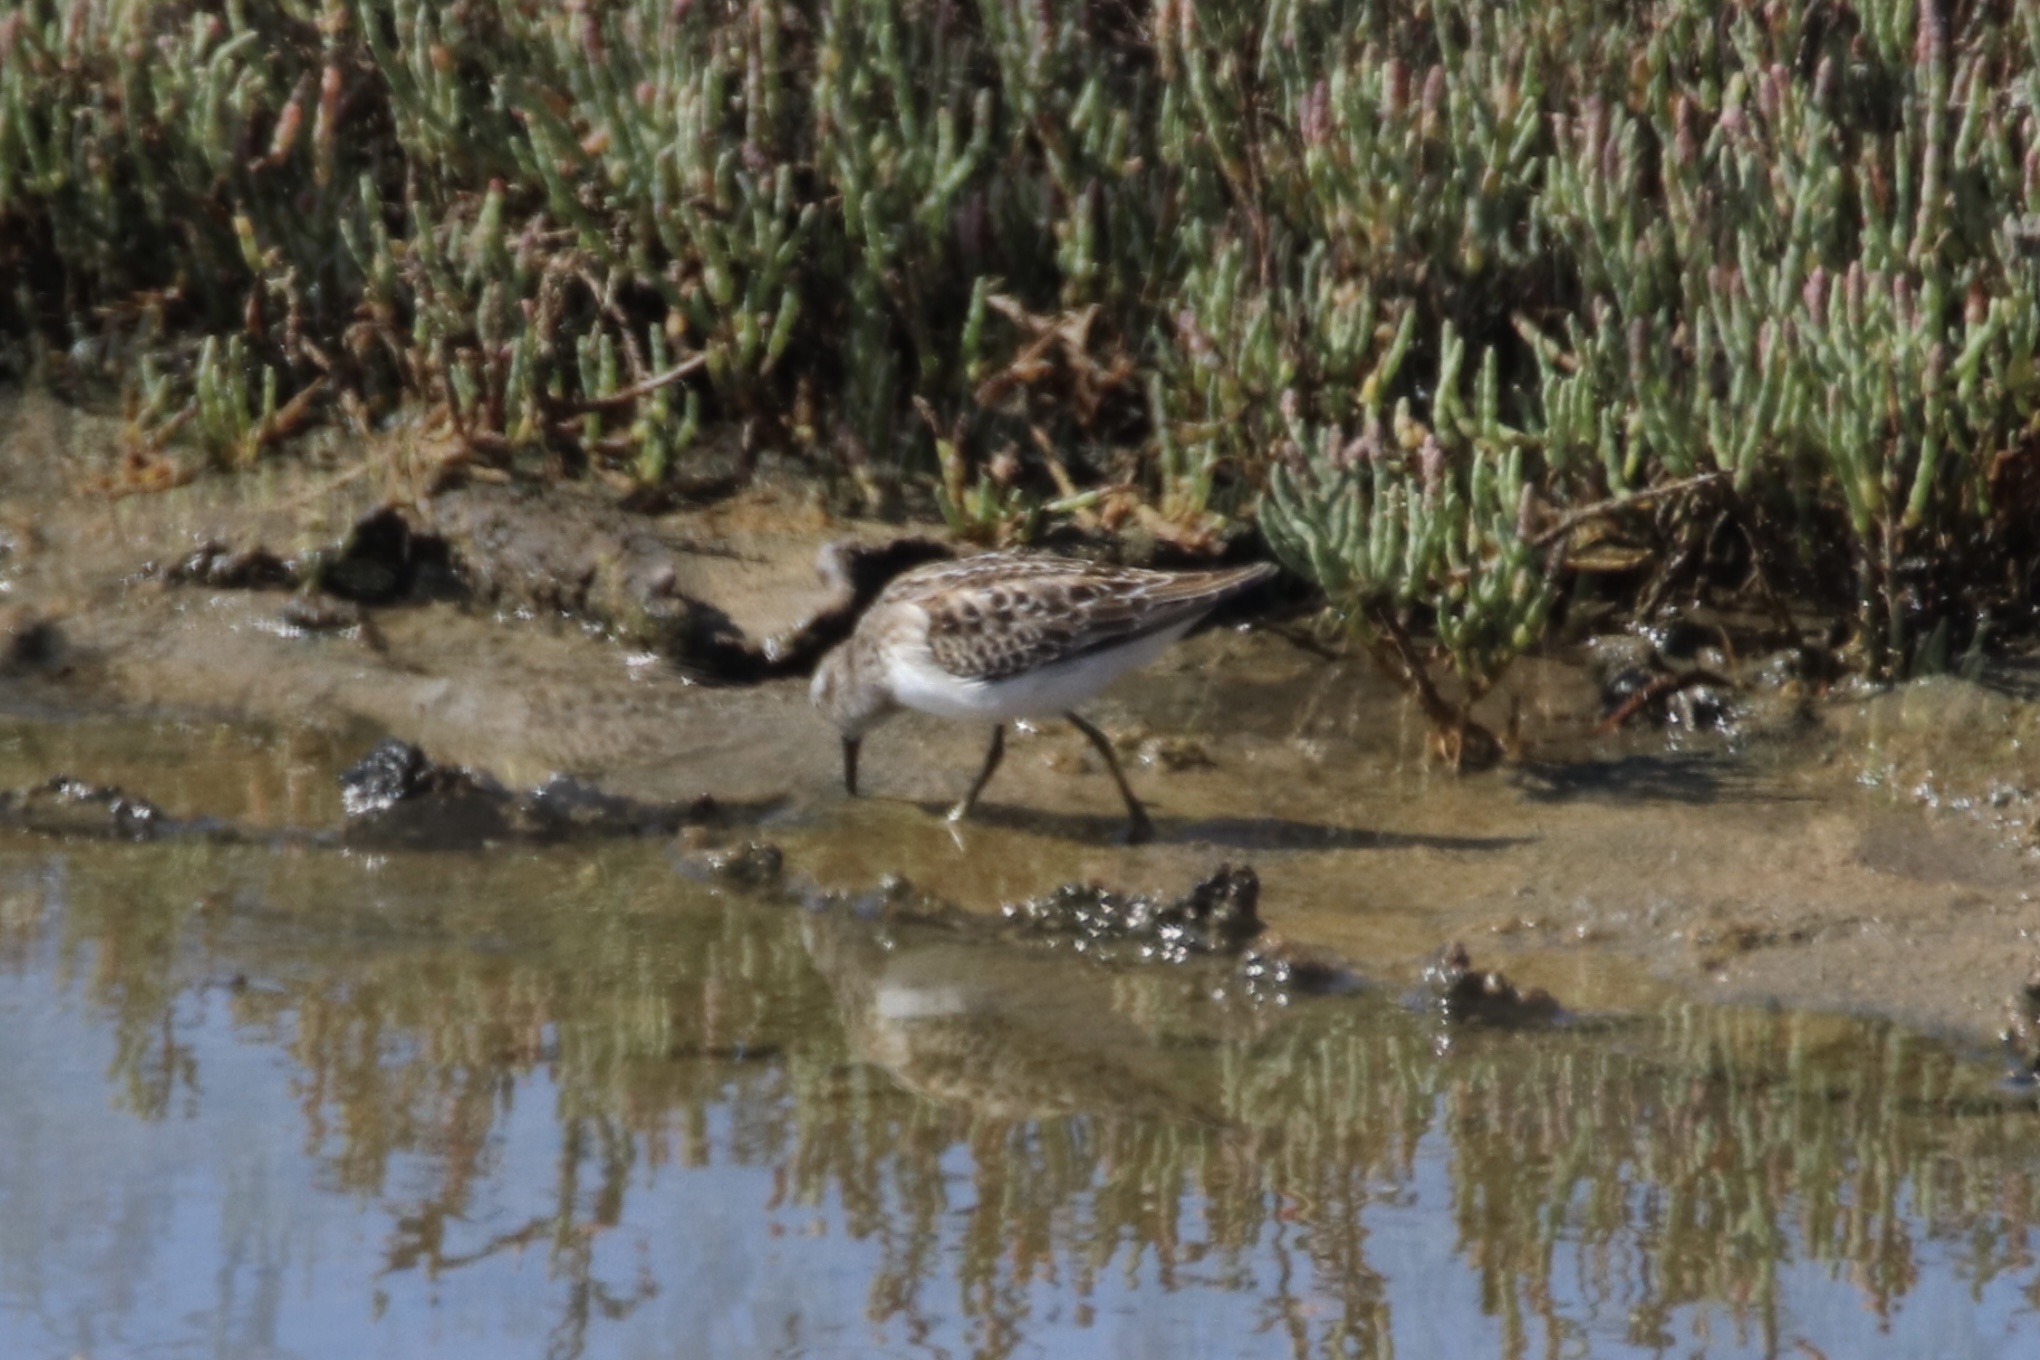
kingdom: Animalia
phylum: Chordata
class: Aves
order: Charadriiformes
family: Scolopacidae
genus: Calidris
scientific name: Calidris mauri
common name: Western sandpiper
